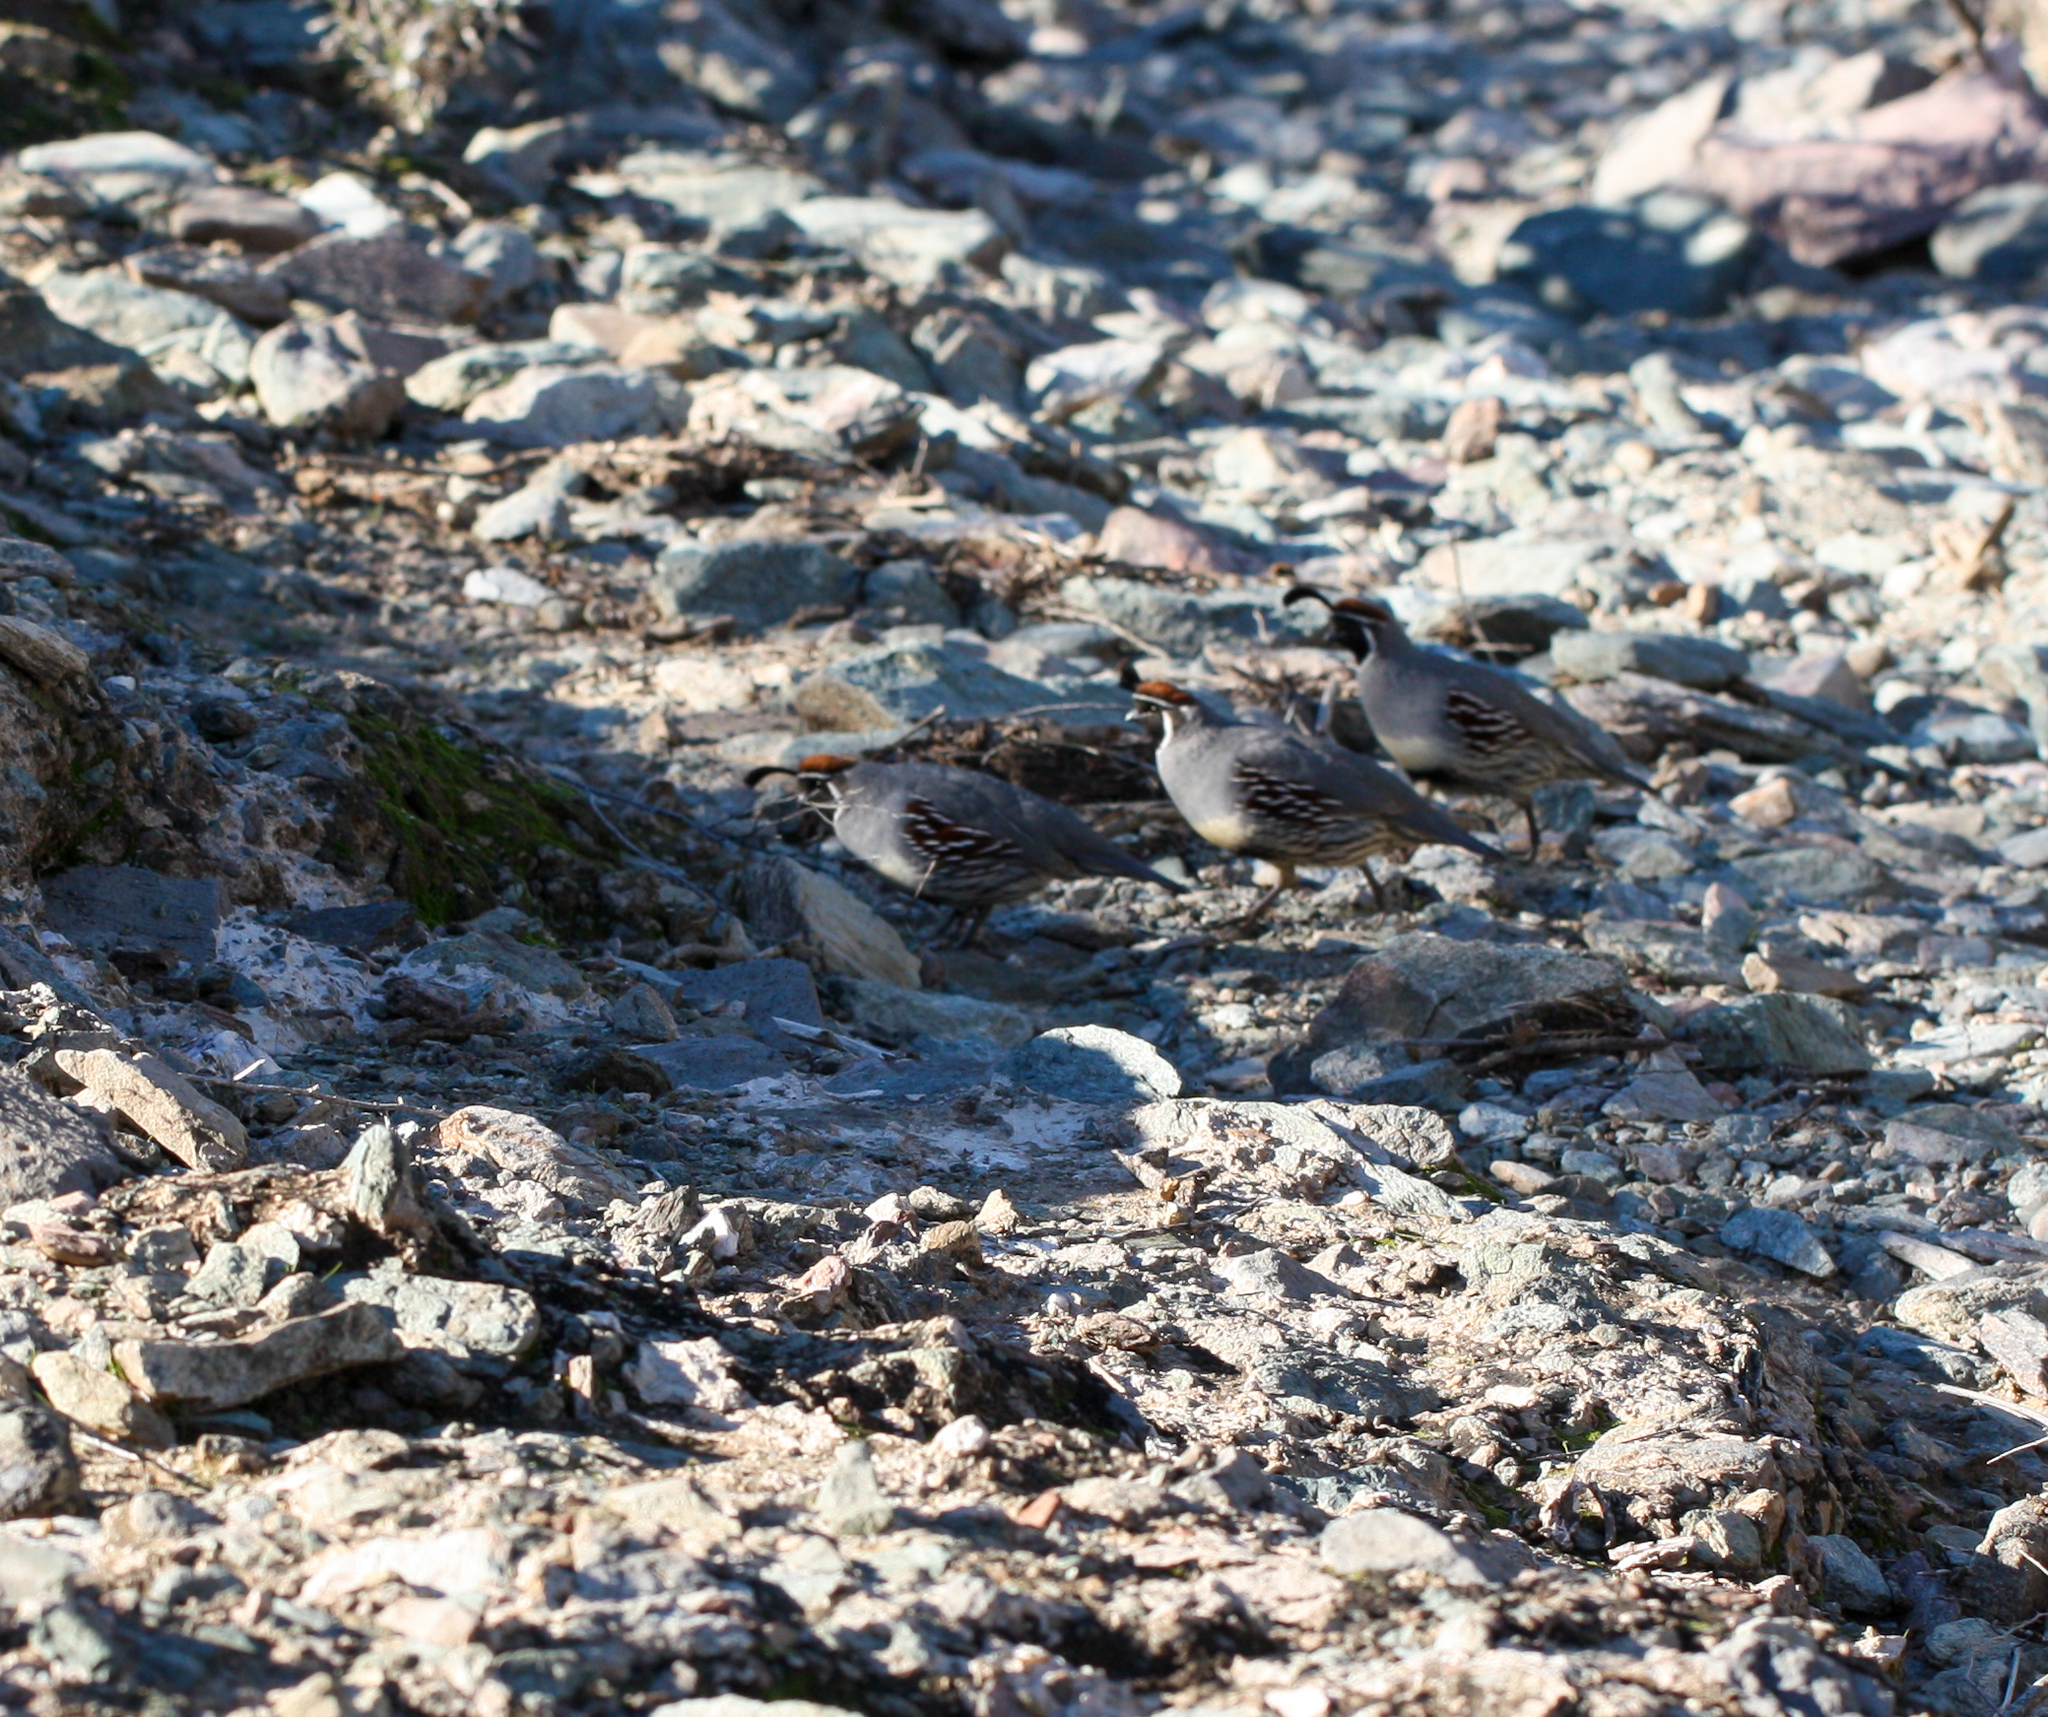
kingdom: Animalia
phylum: Chordata
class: Aves
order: Galliformes
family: Odontophoridae
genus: Callipepla
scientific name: Callipepla gambelii
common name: Gambel's quail
